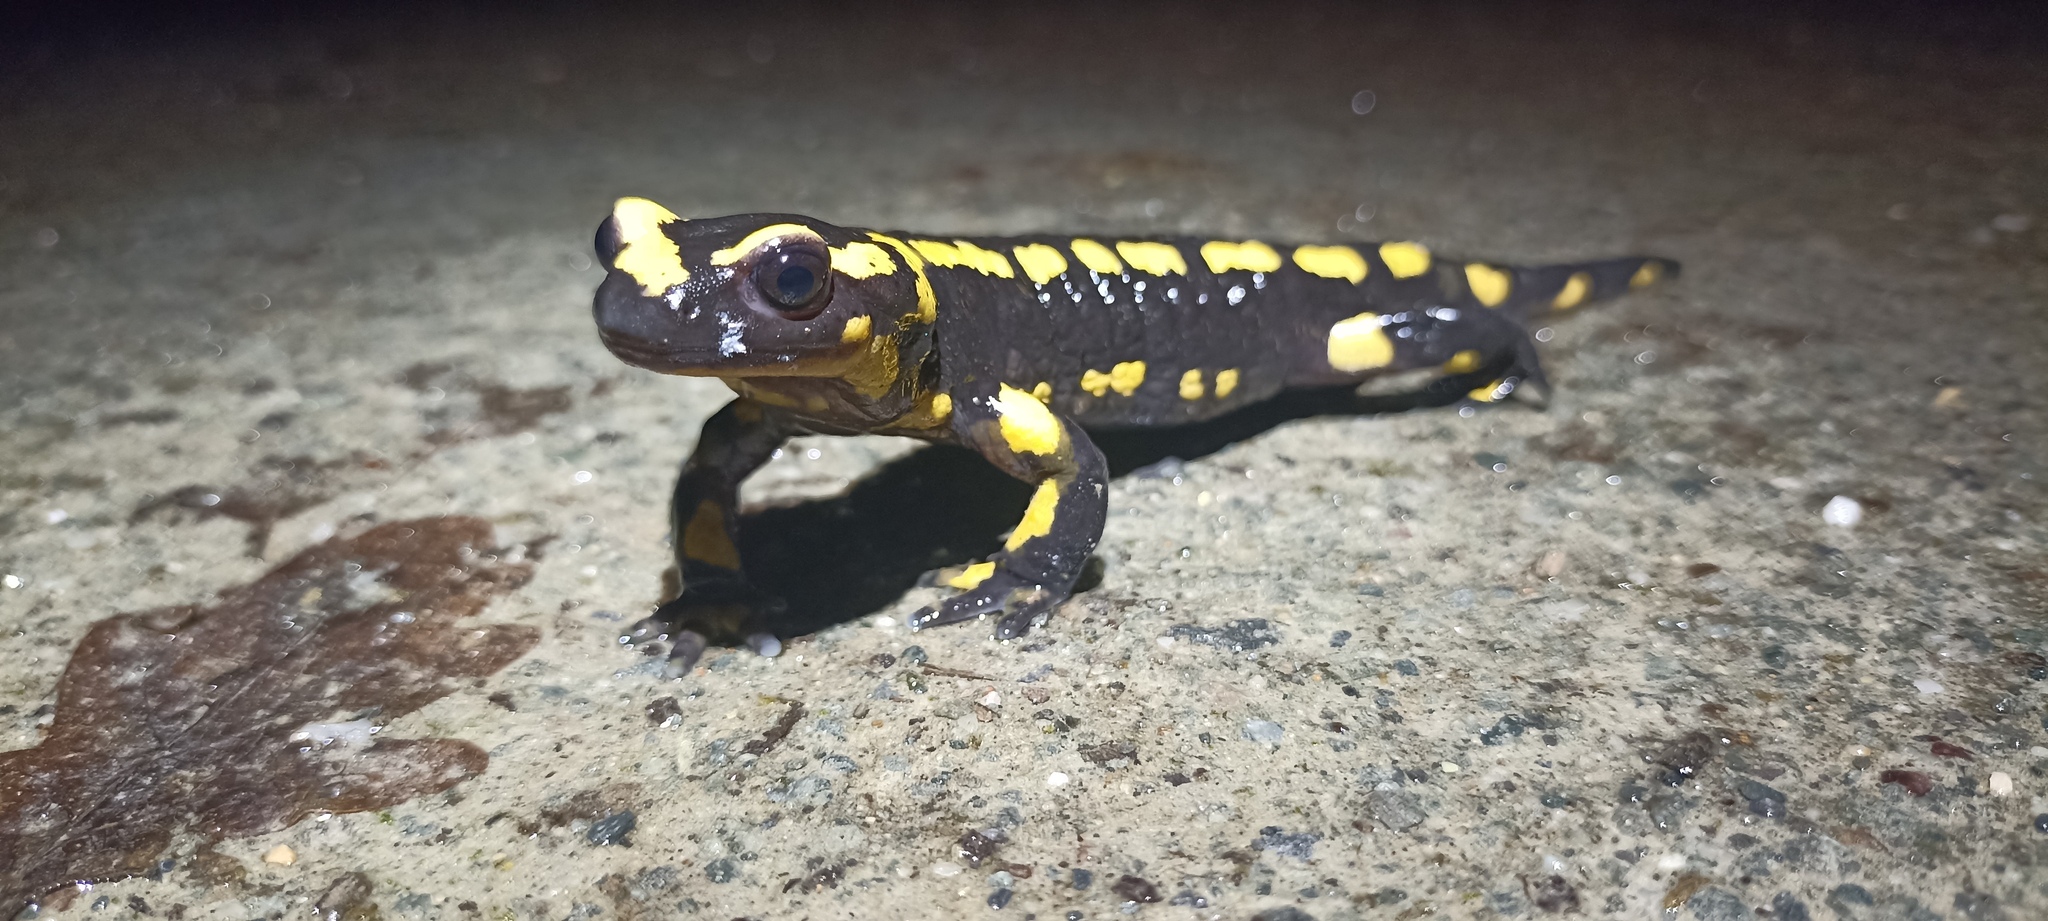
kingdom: Animalia
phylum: Chordata
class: Amphibia
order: Caudata
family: Salamandridae
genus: Salamandra
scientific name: Salamandra salamandra
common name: Fire salamander
